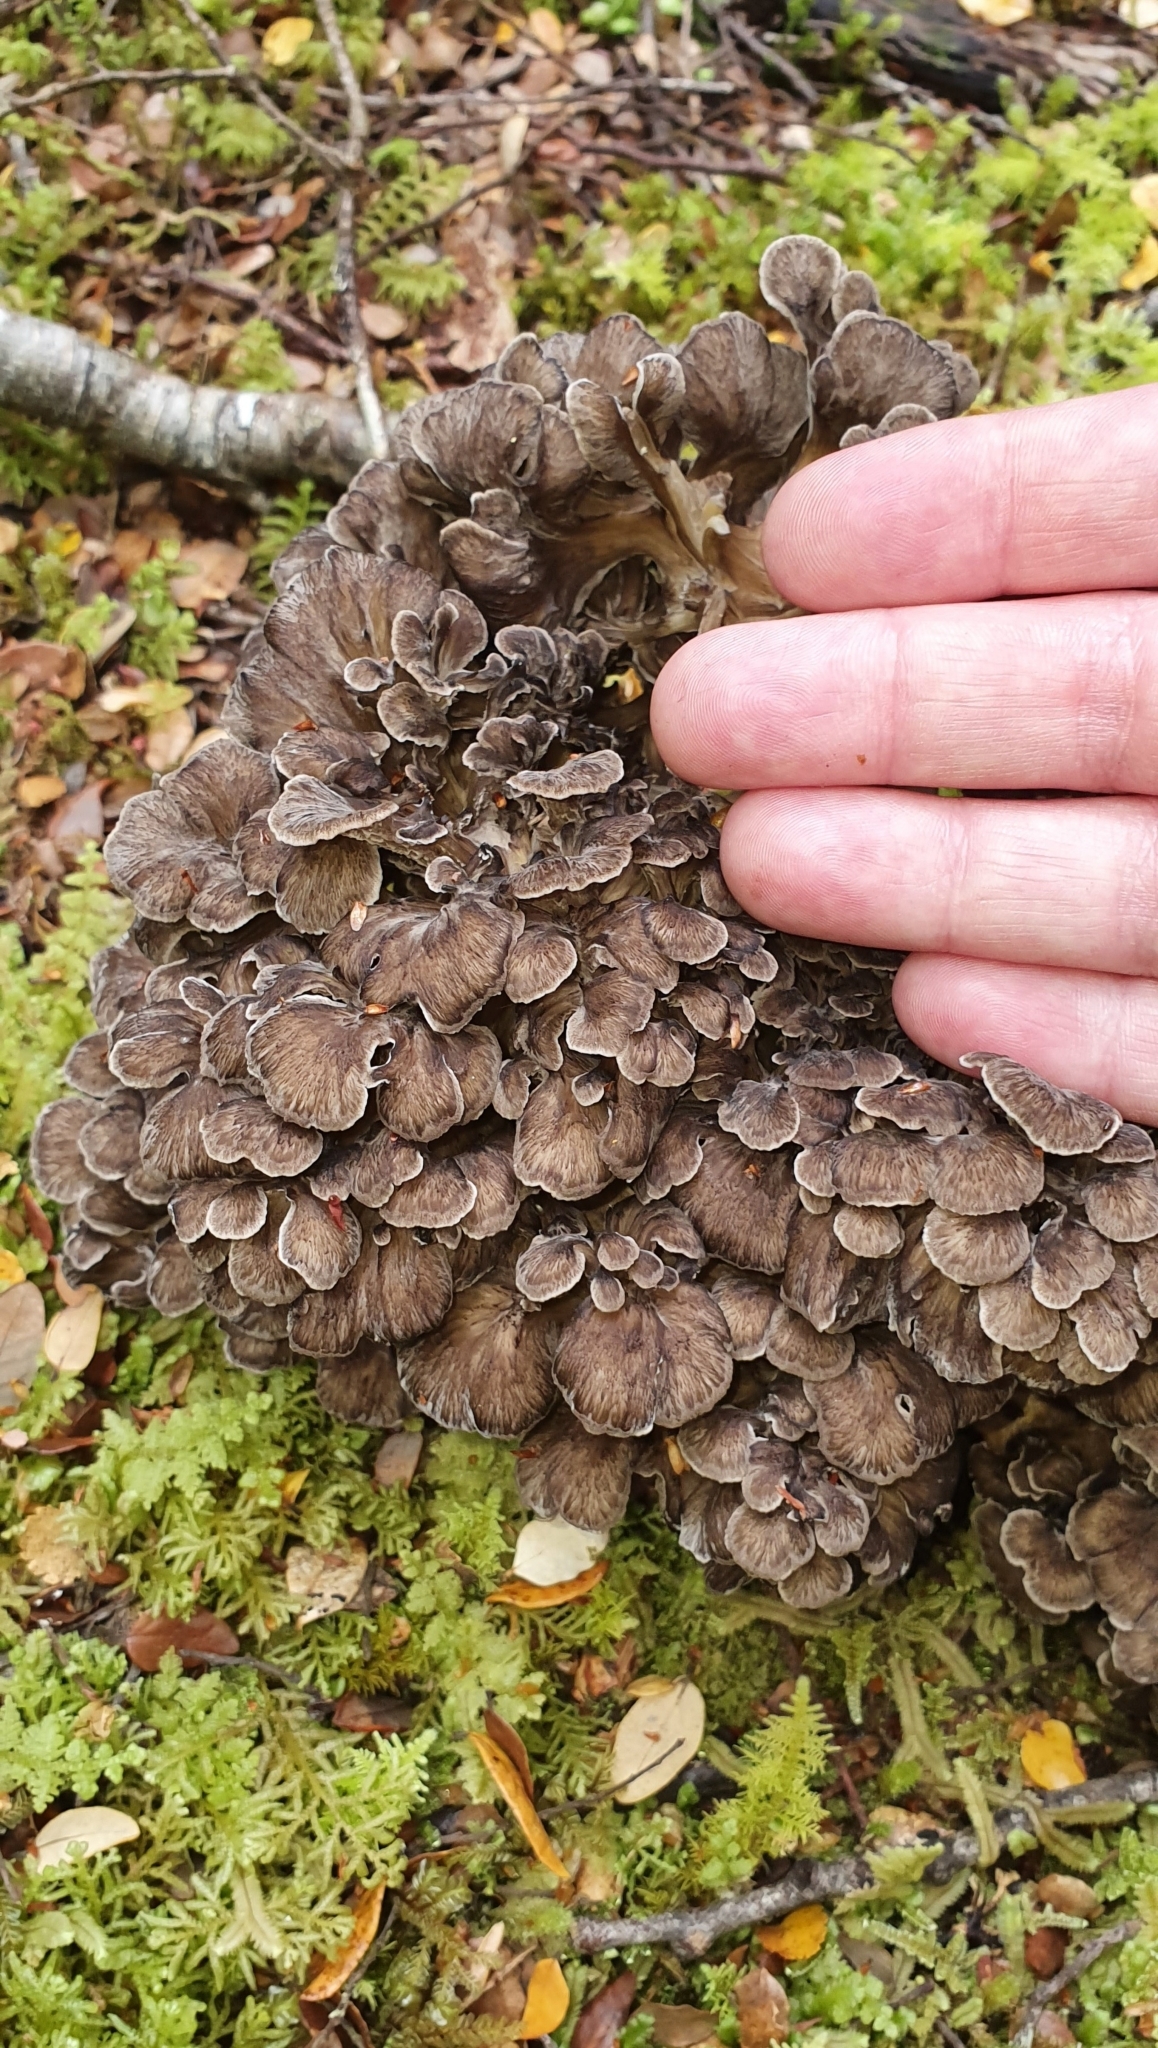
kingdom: Fungi
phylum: Basidiomycota
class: Agaricomycetes
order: Polyporales
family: Grifolaceae
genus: Grifola
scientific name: Grifola colensoi
